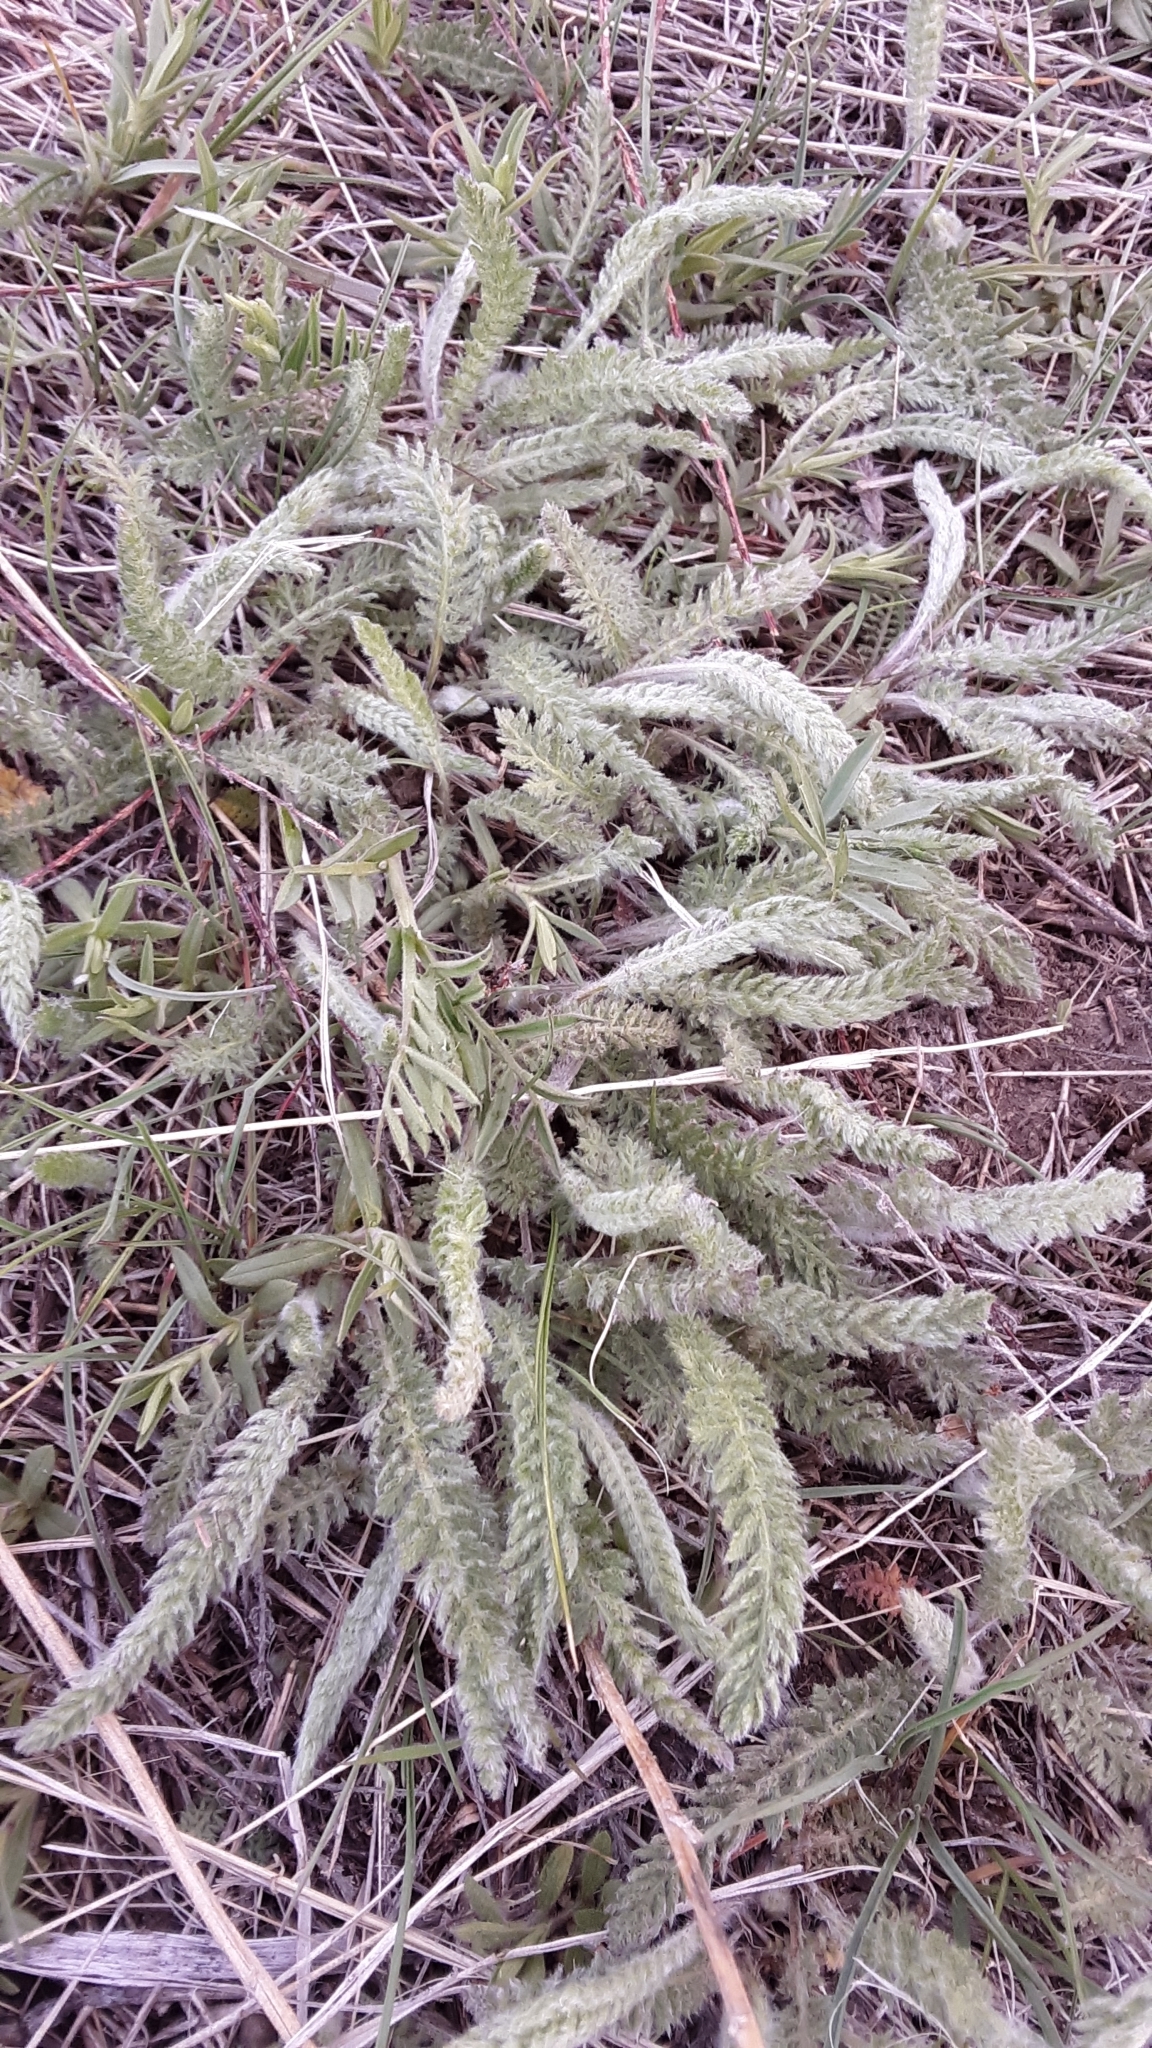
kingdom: Plantae
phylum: Tracheophyta
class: Magnoliopsida
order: Asterales
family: Asteraceae
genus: Achillea
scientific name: Achillea millefolium
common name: Yarrow
